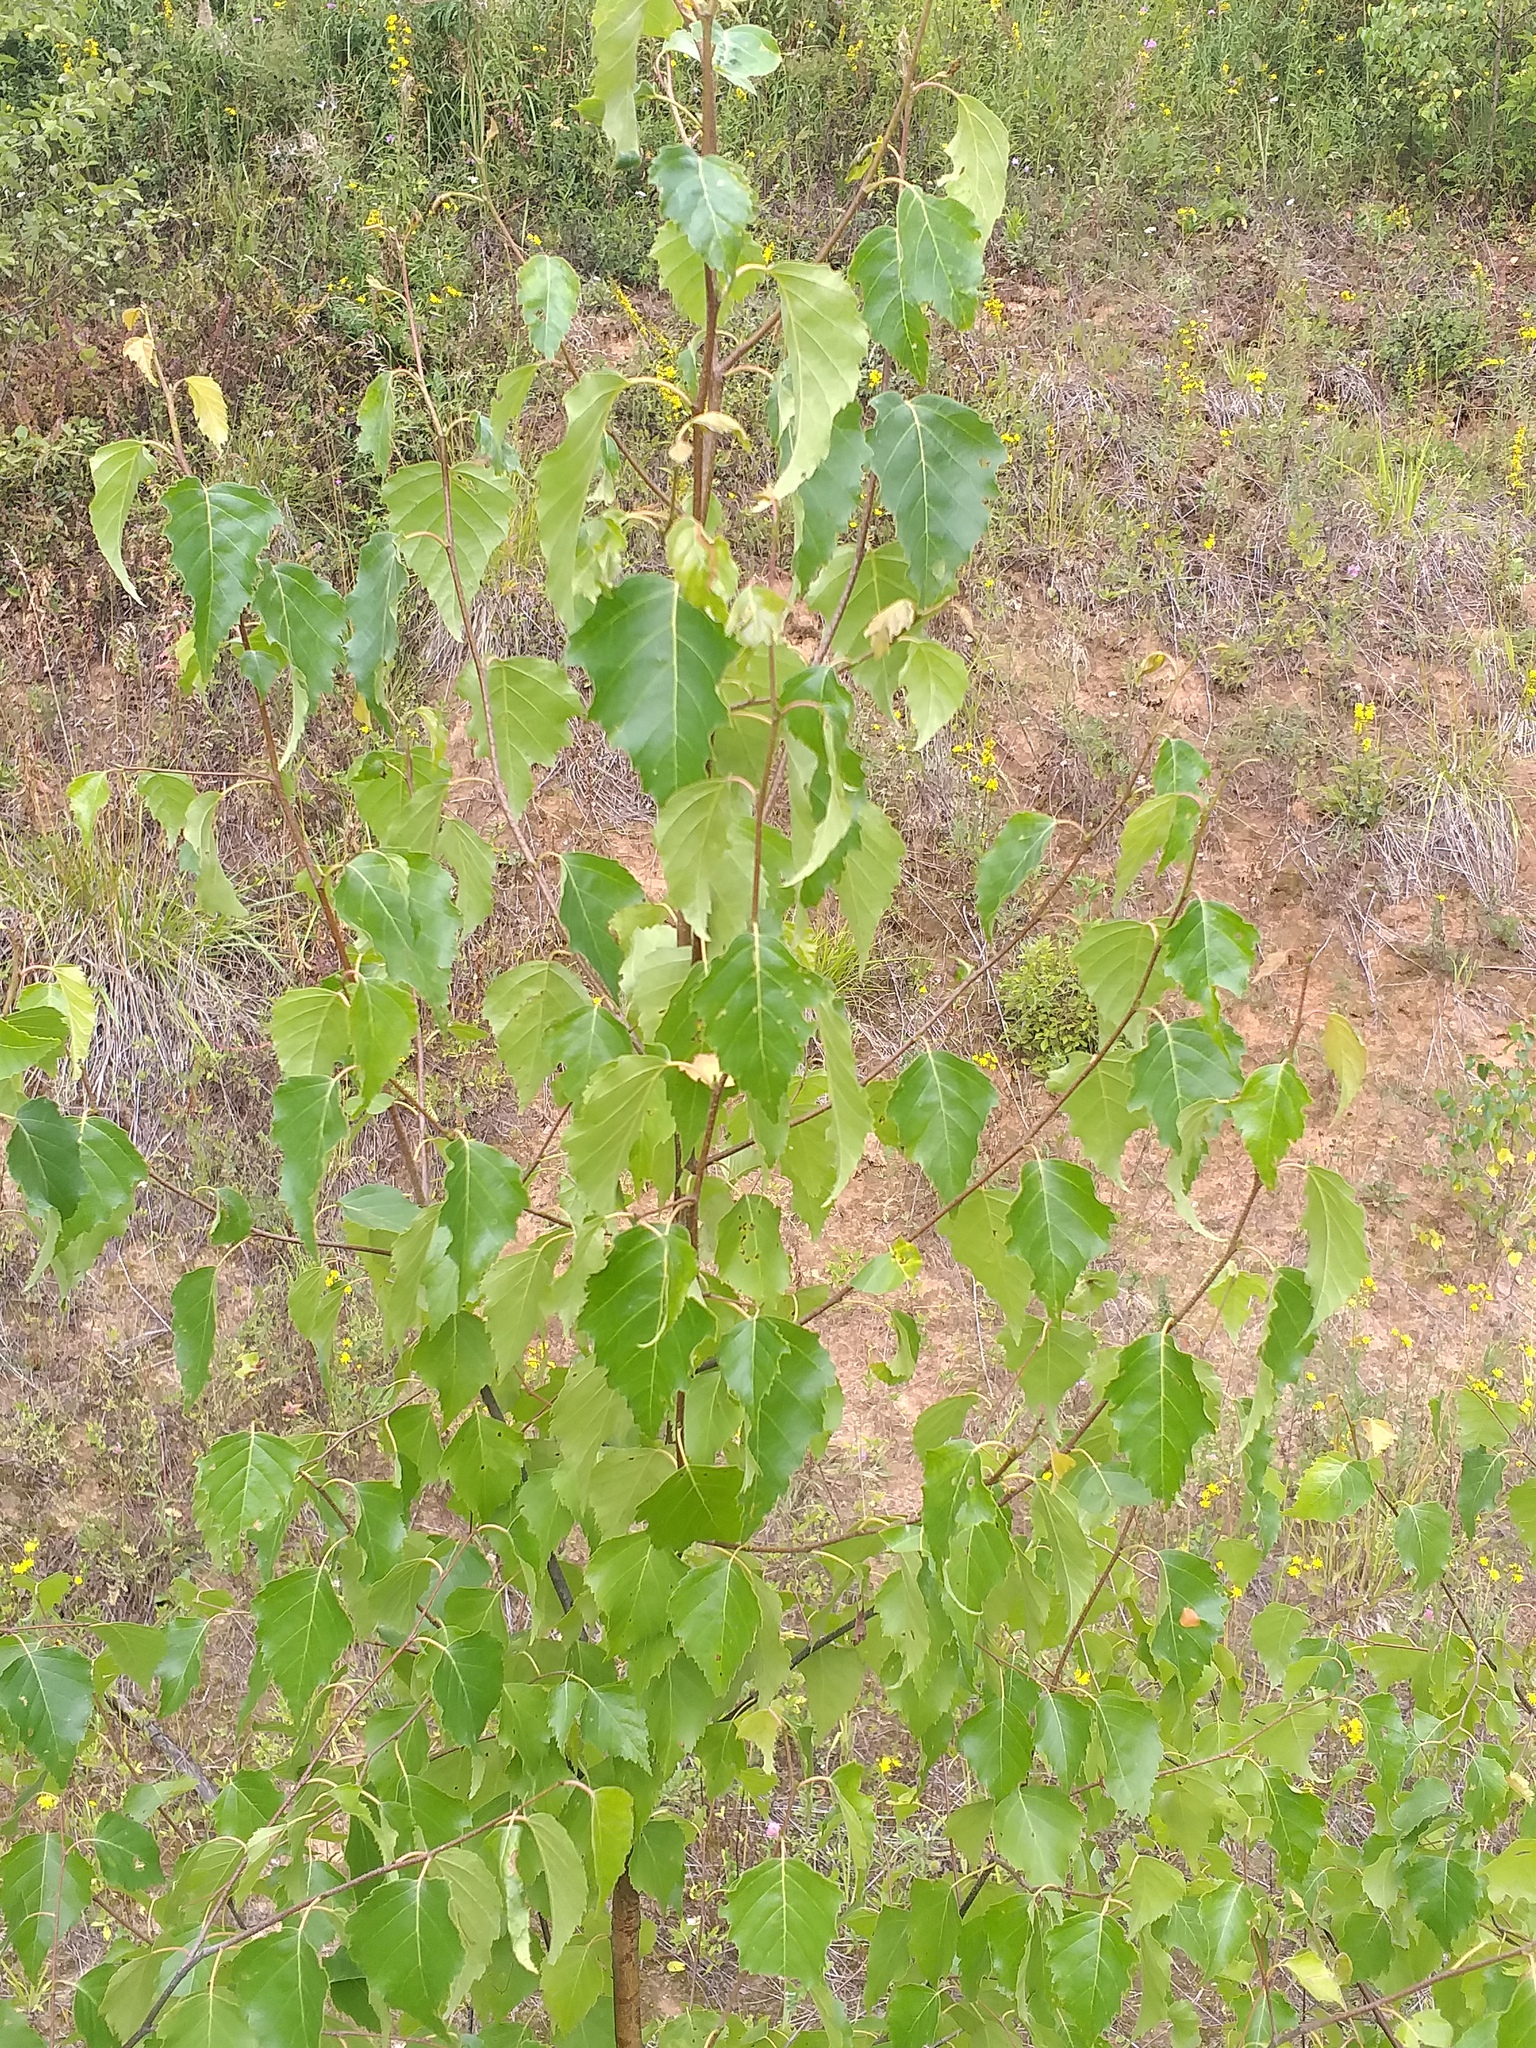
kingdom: Plantae
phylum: Tracheophyta
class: Magnoliopsida
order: Fagales
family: Betulaceae
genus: Betula
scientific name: Betula pendula
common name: Silver birch
